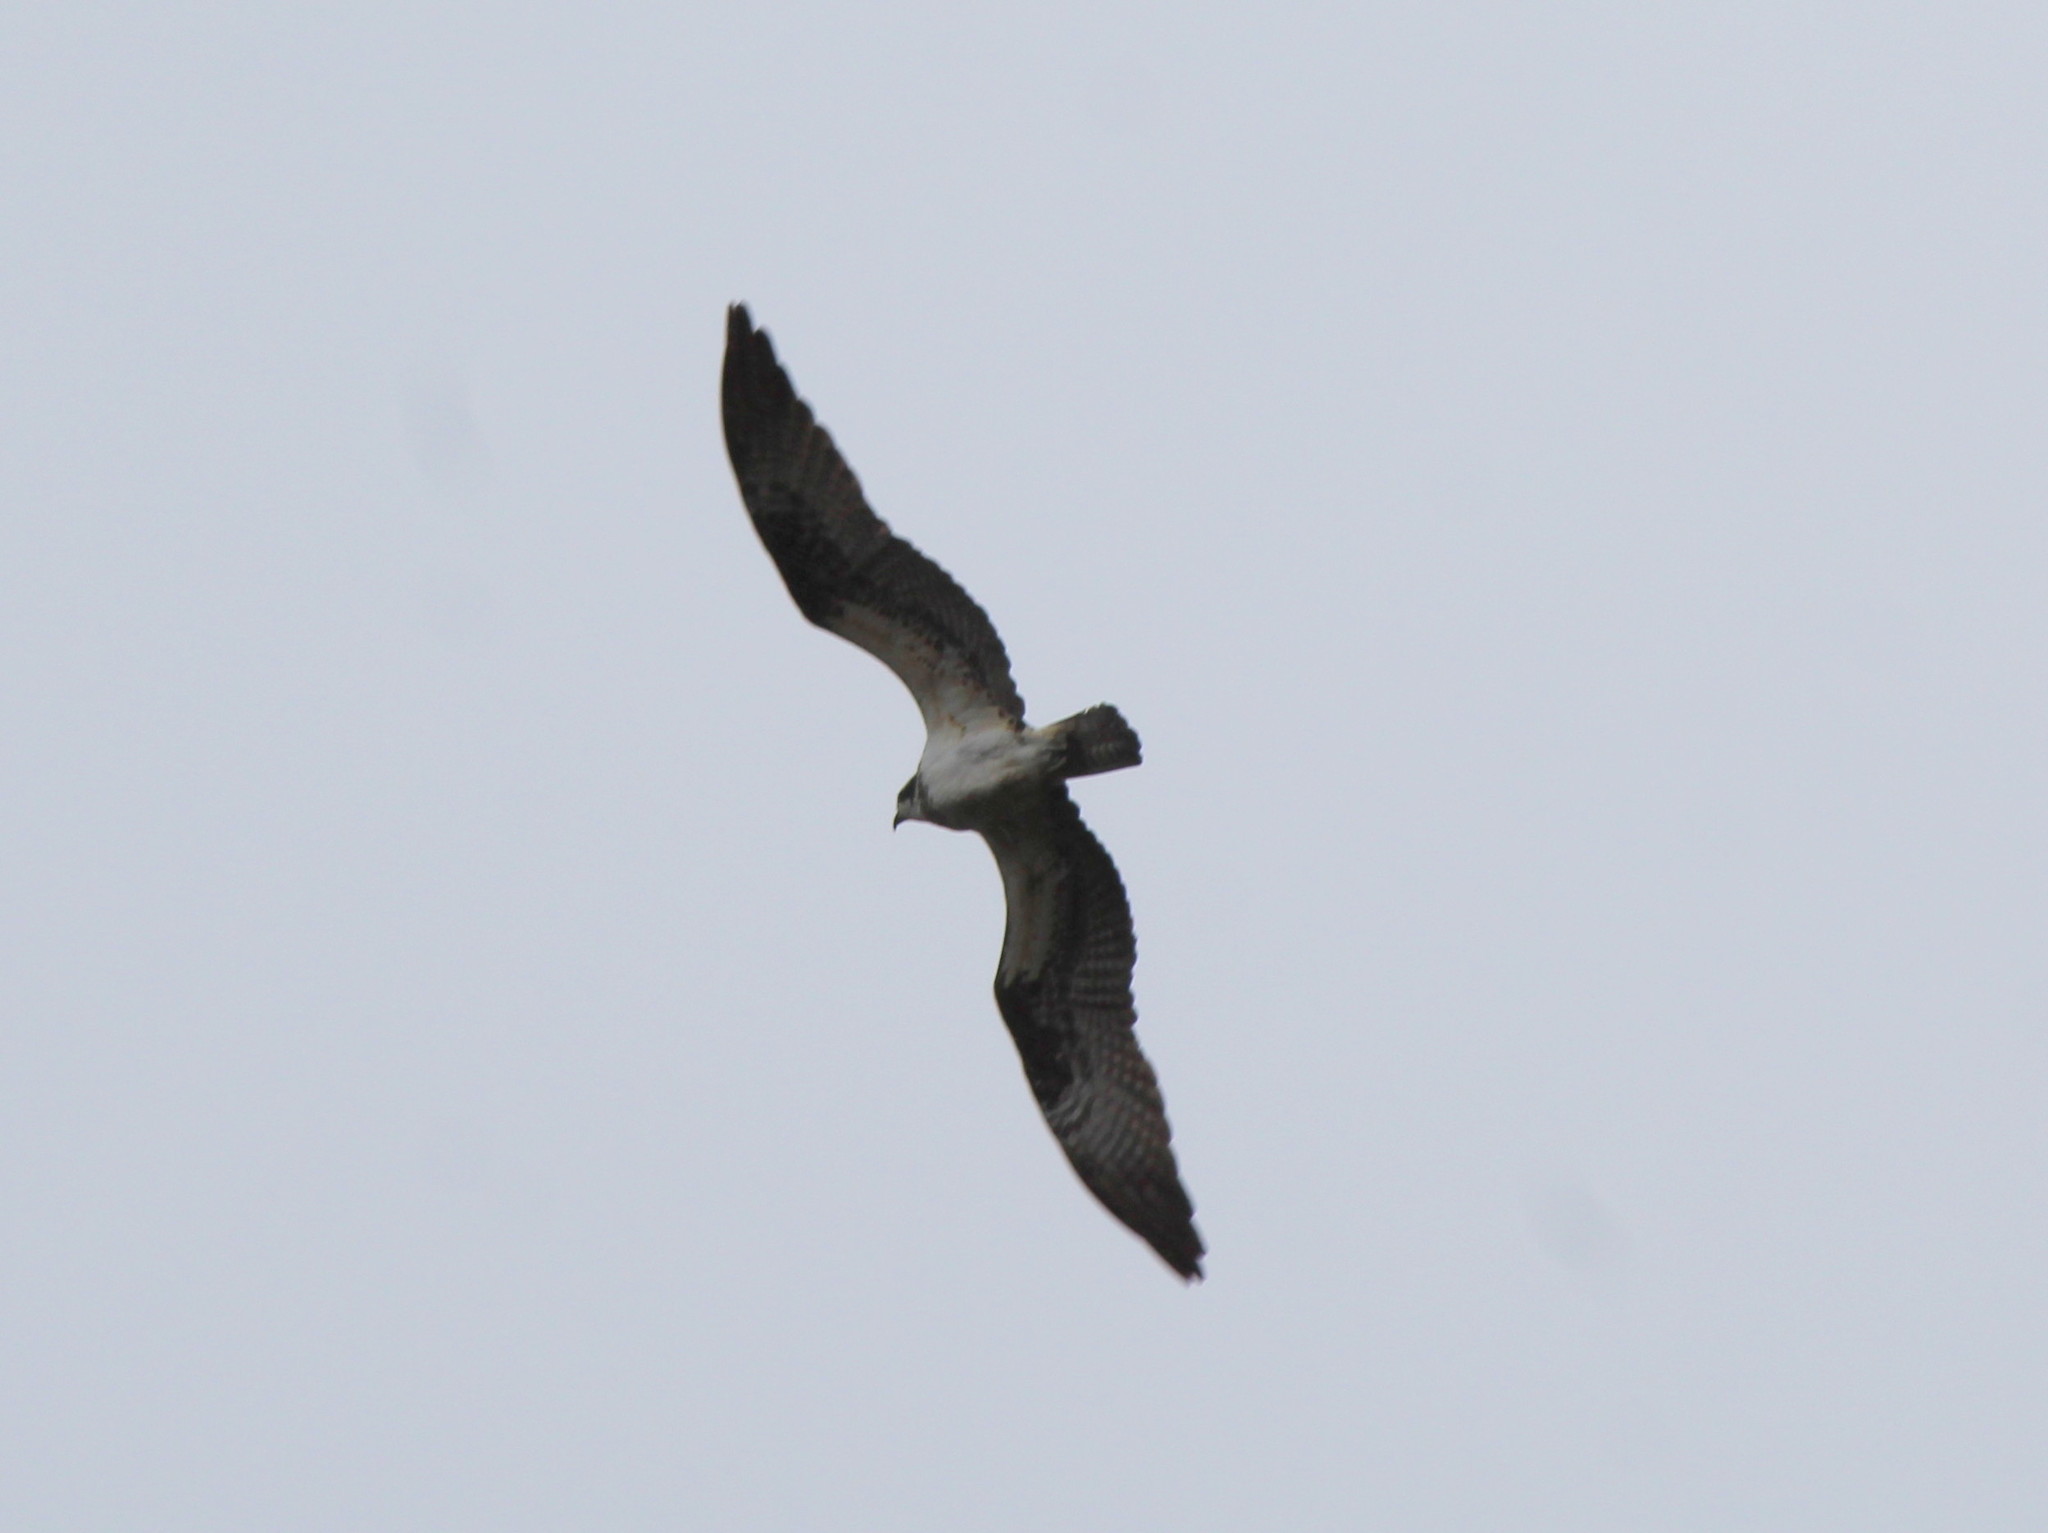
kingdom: Animalia
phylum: Chordata
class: Aves
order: Accipitriformes
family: Pandionidae
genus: Pandion
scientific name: Pandion haliaetus
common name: Osprey
